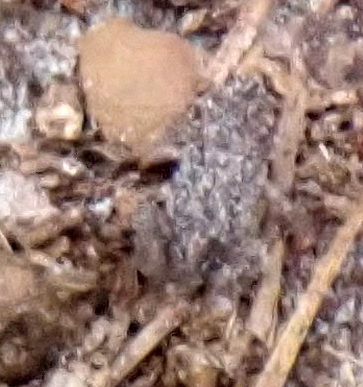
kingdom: Animalia
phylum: Chordata
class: Amphibia
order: Anura
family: Scaphiopodidae
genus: Scaphiopus
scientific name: Scaphiopus holbrookii
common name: Eastern spadefoot toad
